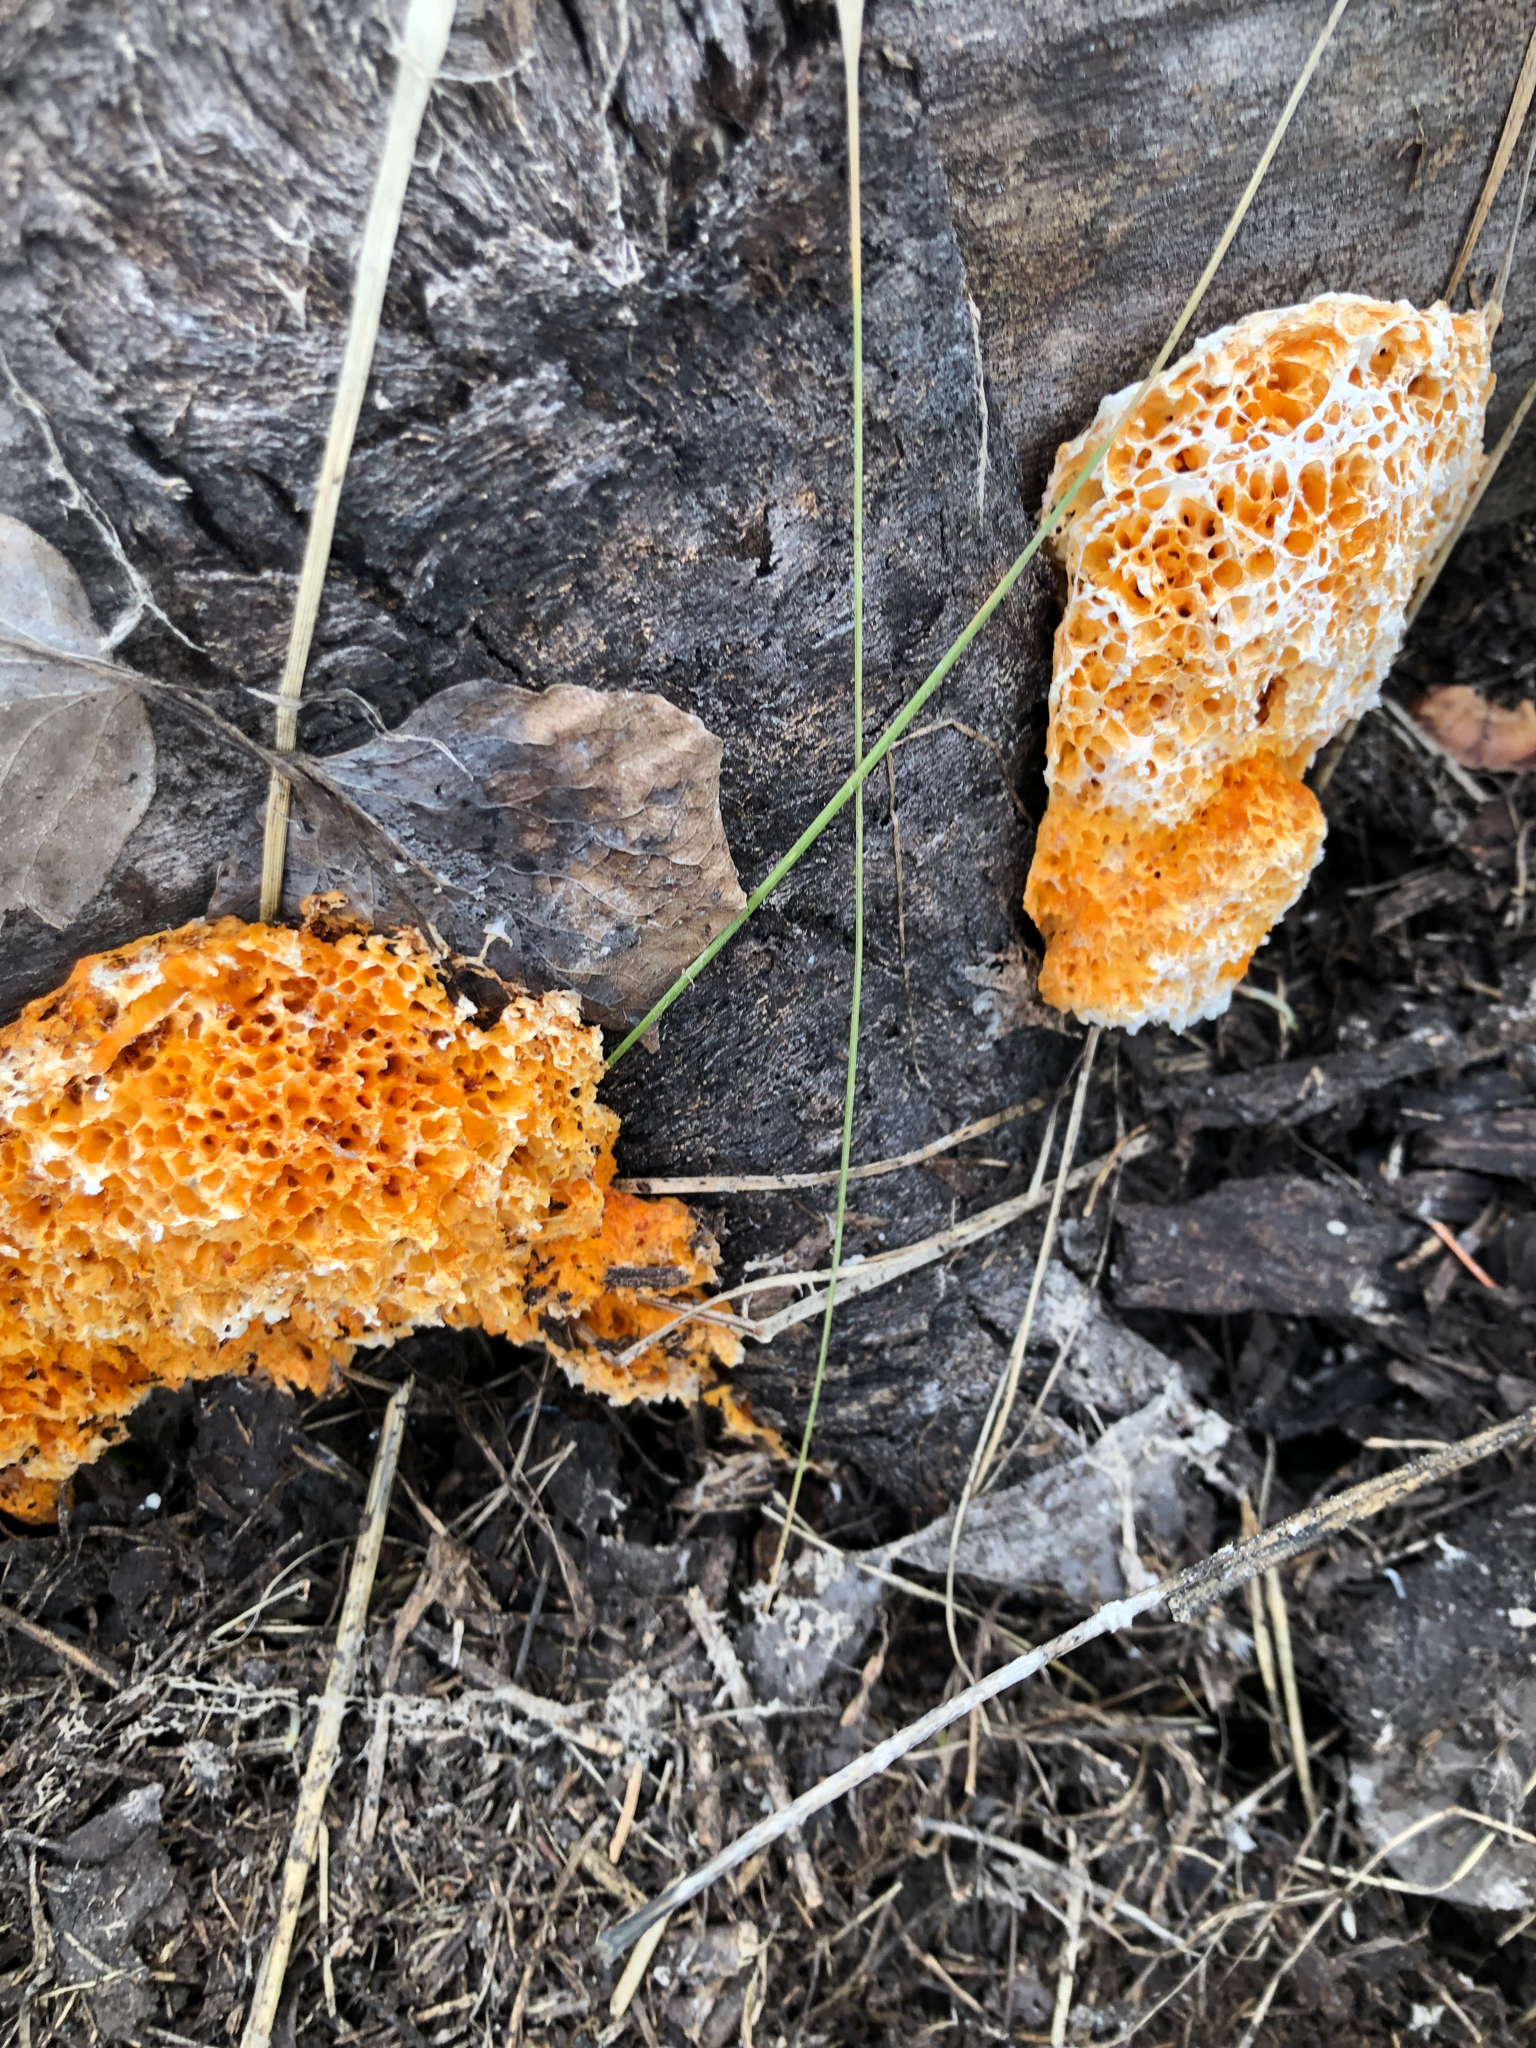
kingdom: Fungi
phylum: Basidiomycota
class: Agaricomycetes
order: Polyporales
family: Pycnoporellaceae
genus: Pycnoporellus
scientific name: Pycnoporellus alboluteus
